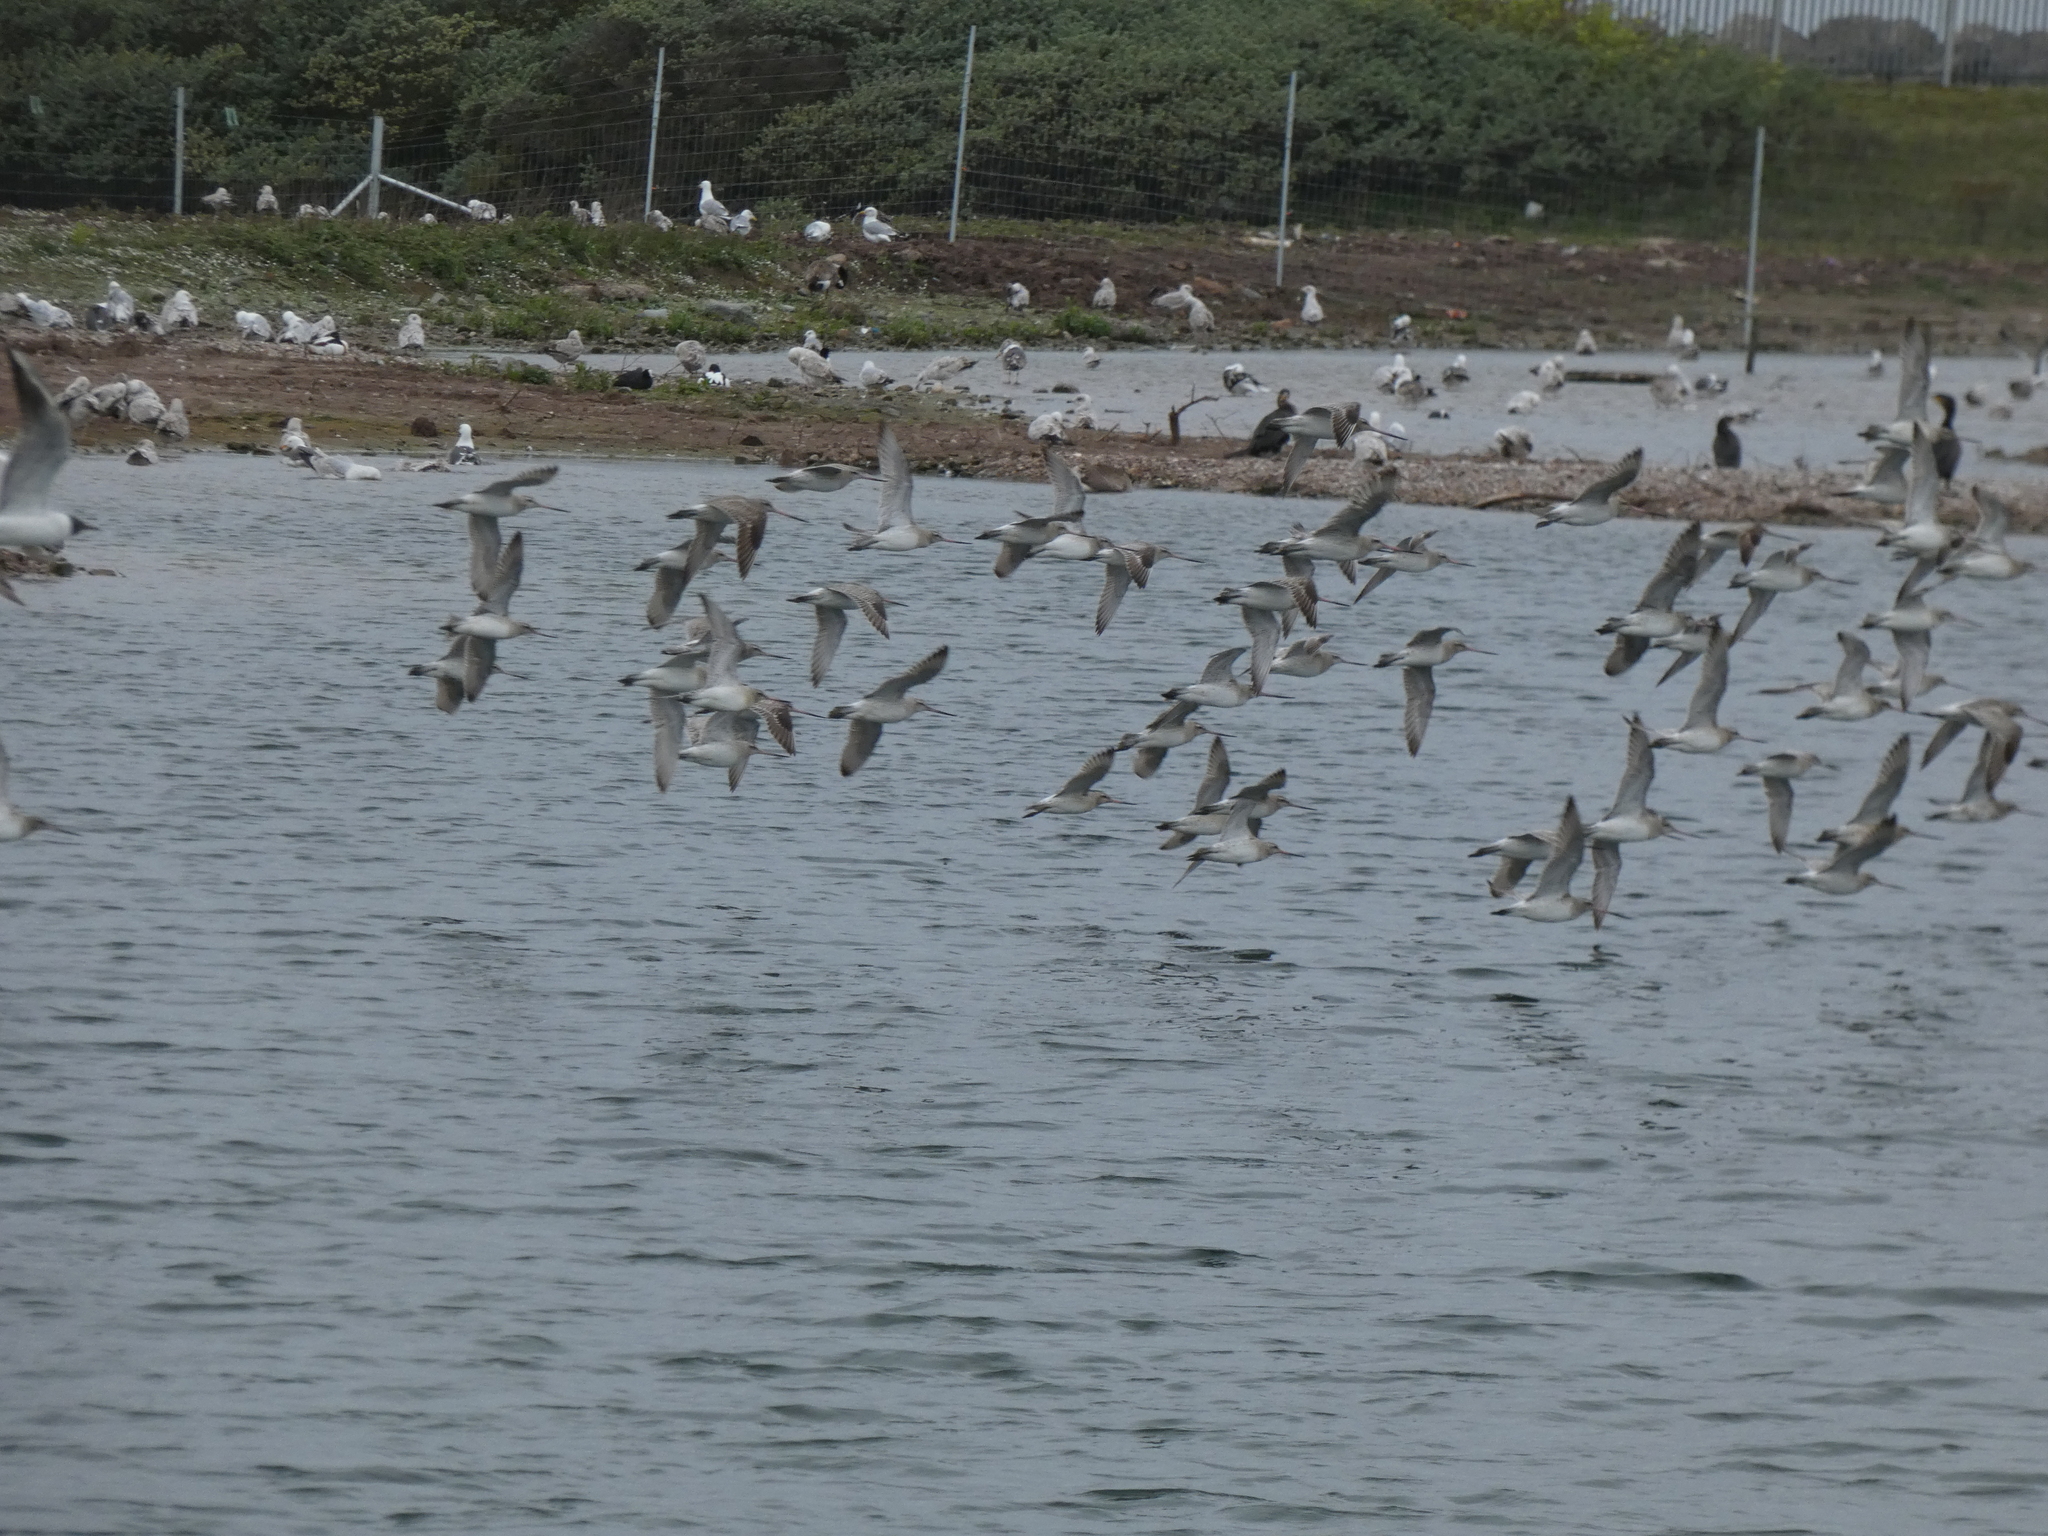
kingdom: Animalia
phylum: Chordata
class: Aves
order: Charadriiformes
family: Scolopacidae
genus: Limosa
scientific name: Limosa lapponica
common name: Bar-tailed godwit
